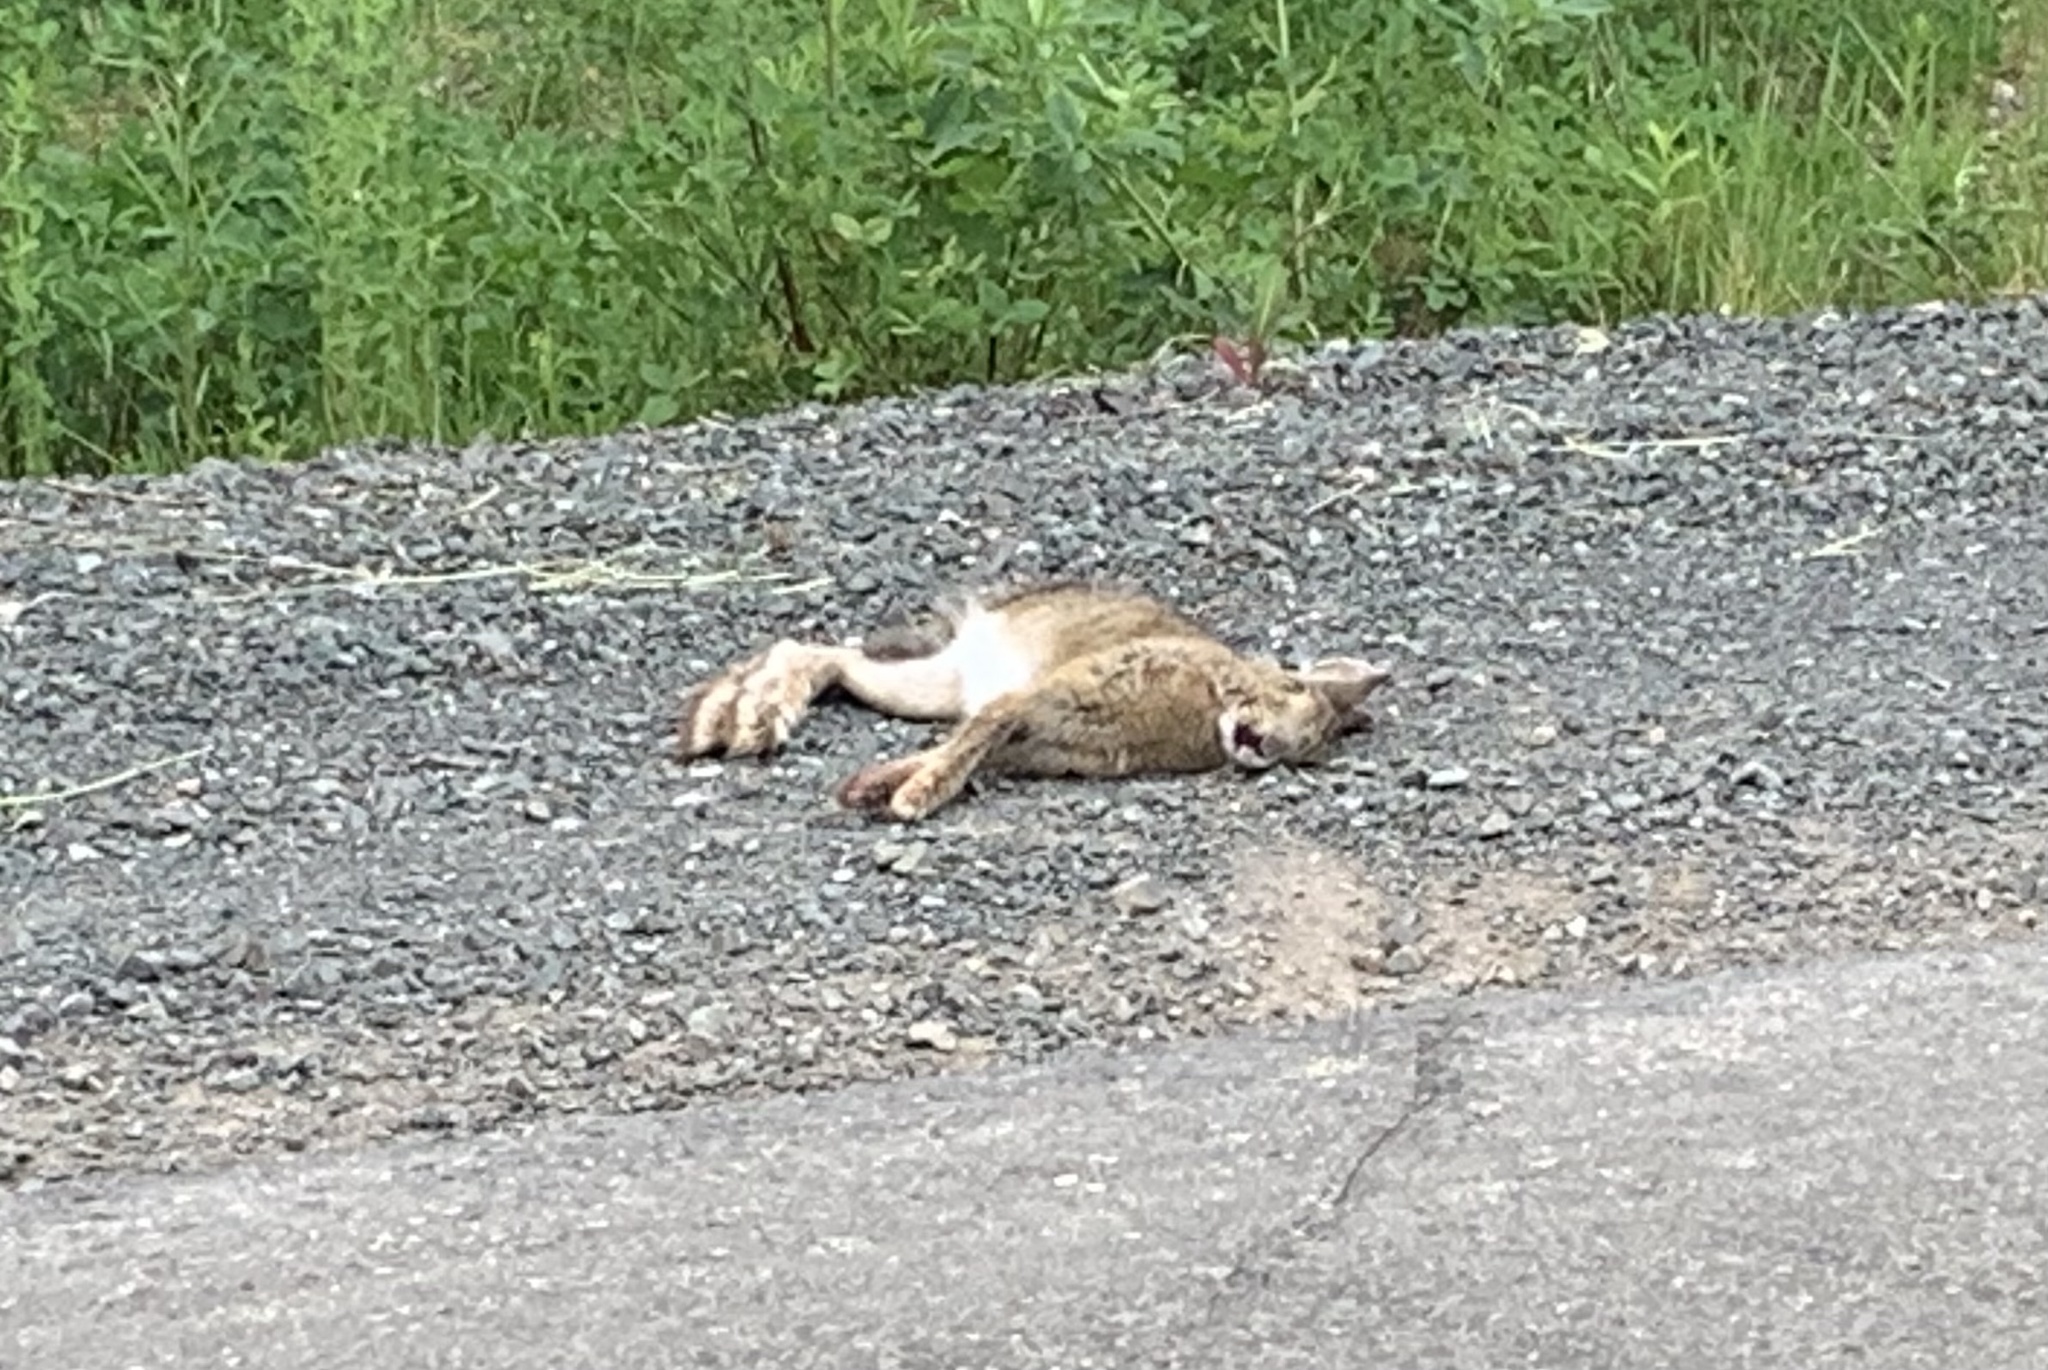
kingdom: Animalia
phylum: Chordata
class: Mammalia
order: Lagomorpha
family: Leporidae
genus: Lepus
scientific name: Lepus americanus
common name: Snowshoe hare
